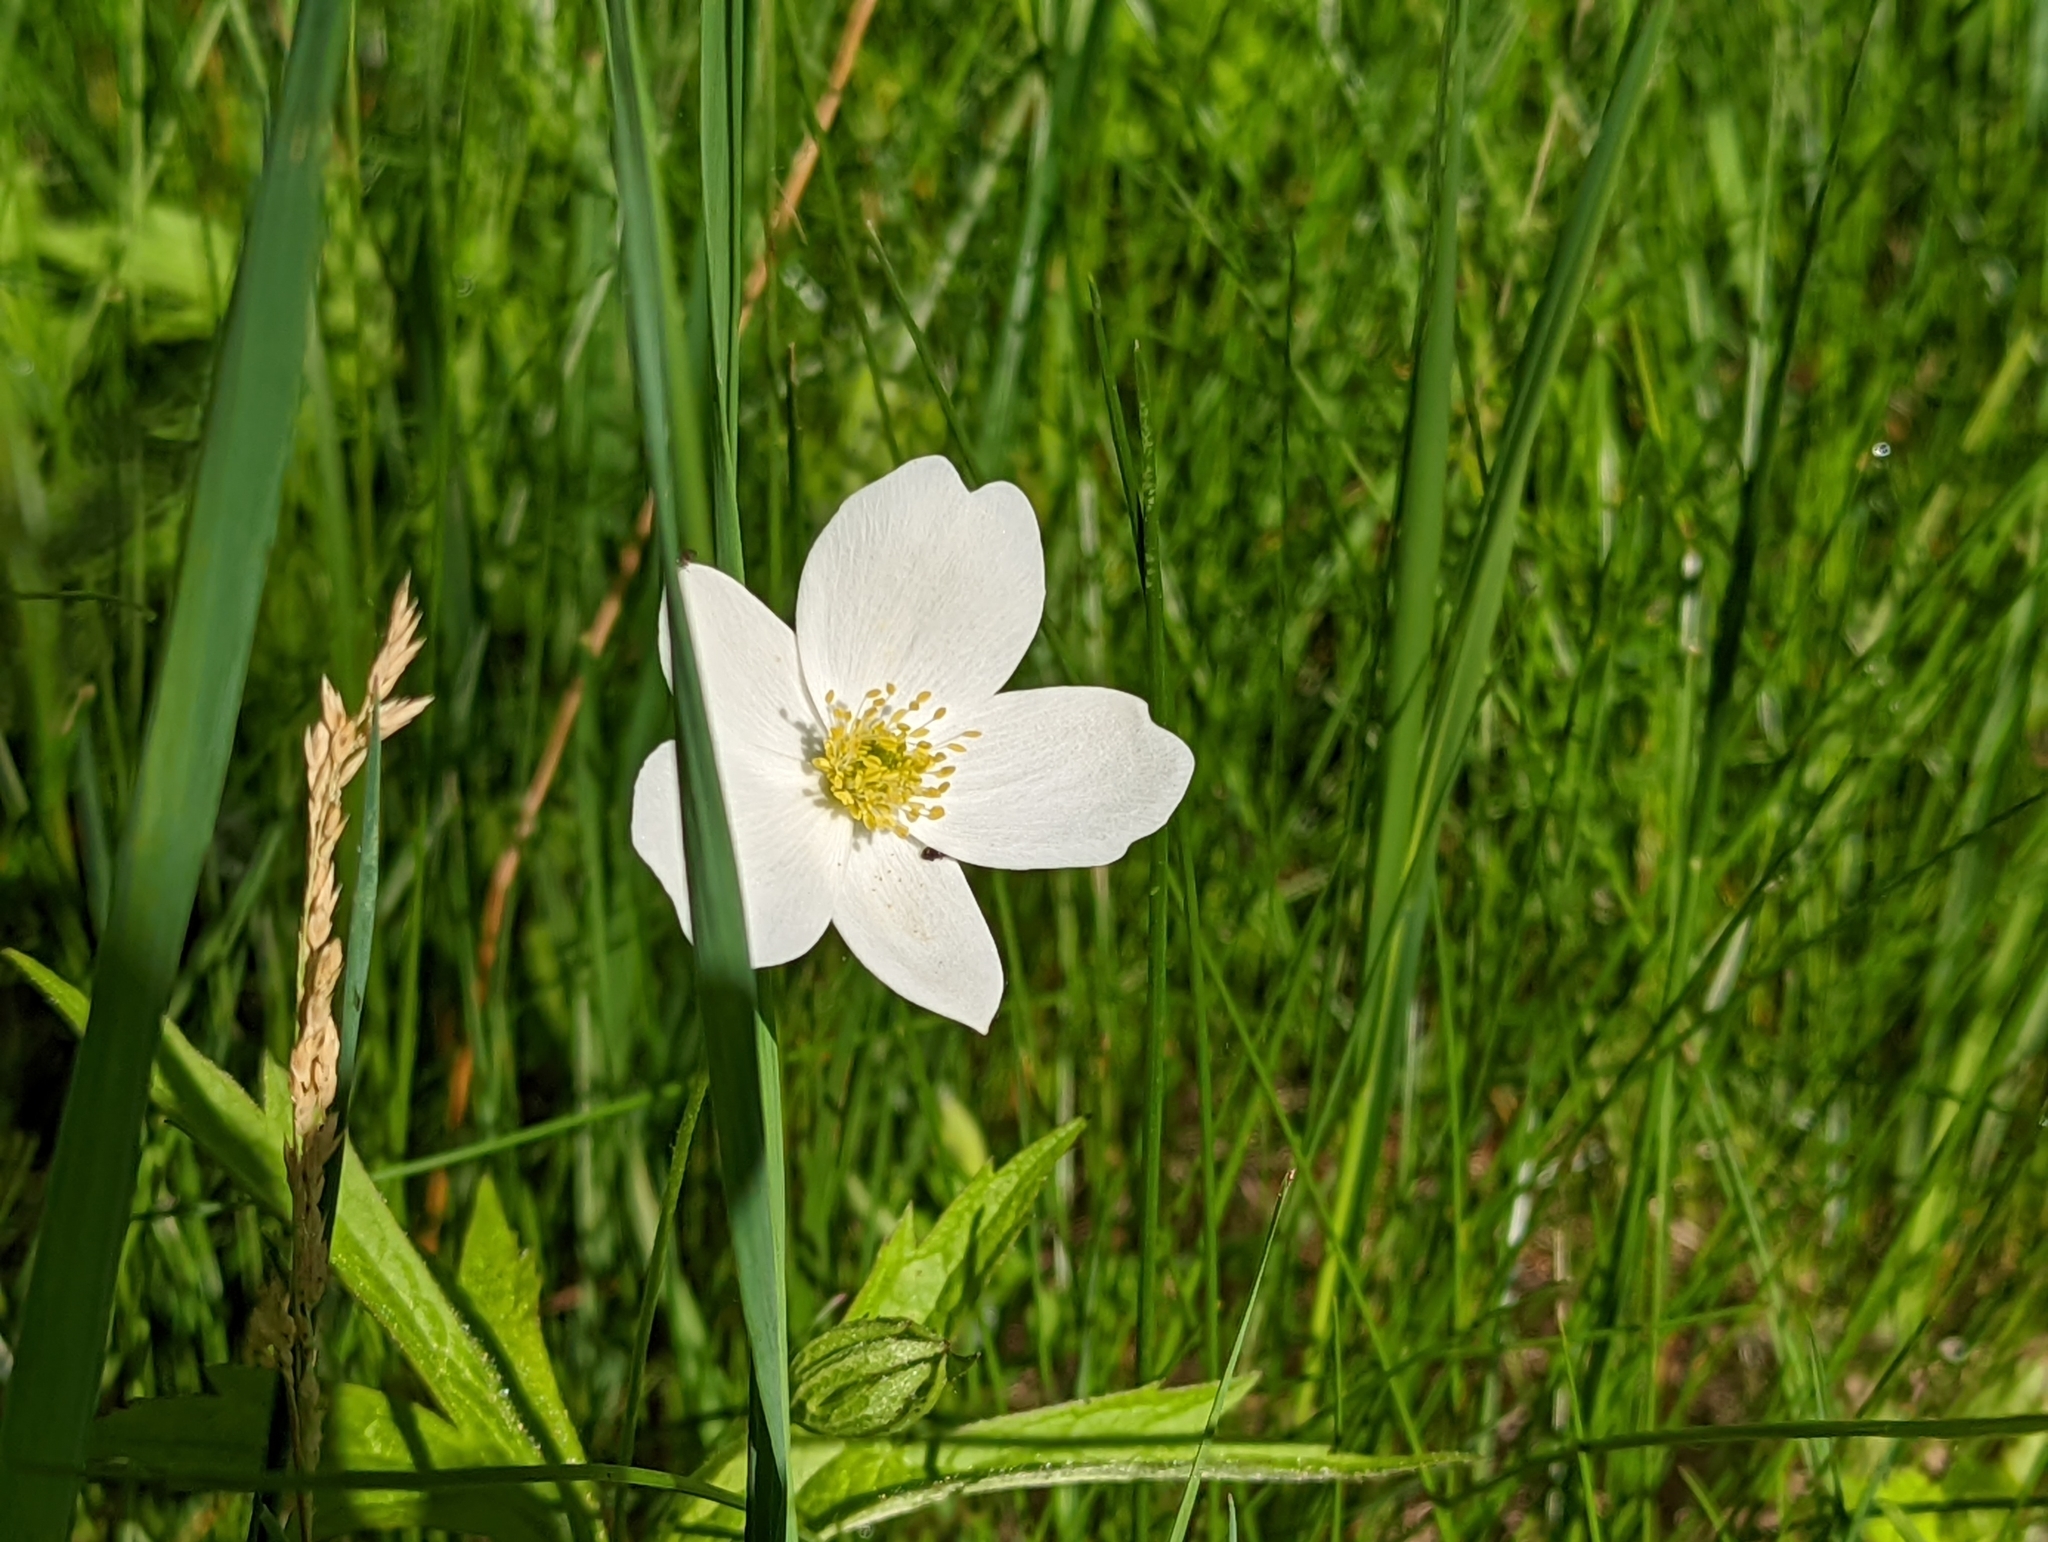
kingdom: Plantae
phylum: Tracheophyta
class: Magnoliopsida
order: Ranunculales
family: Ranunculaceae
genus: Anemonastrum
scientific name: Anemonastrum canadense
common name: Canada anemone
